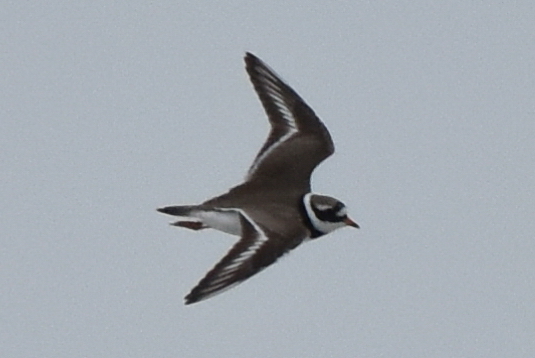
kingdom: Animalia
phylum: Chordata
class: Aves
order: Charadriiformes
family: Charadriidae
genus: Charadrius
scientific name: Charadrius hiaticula
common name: Common ringed plover
